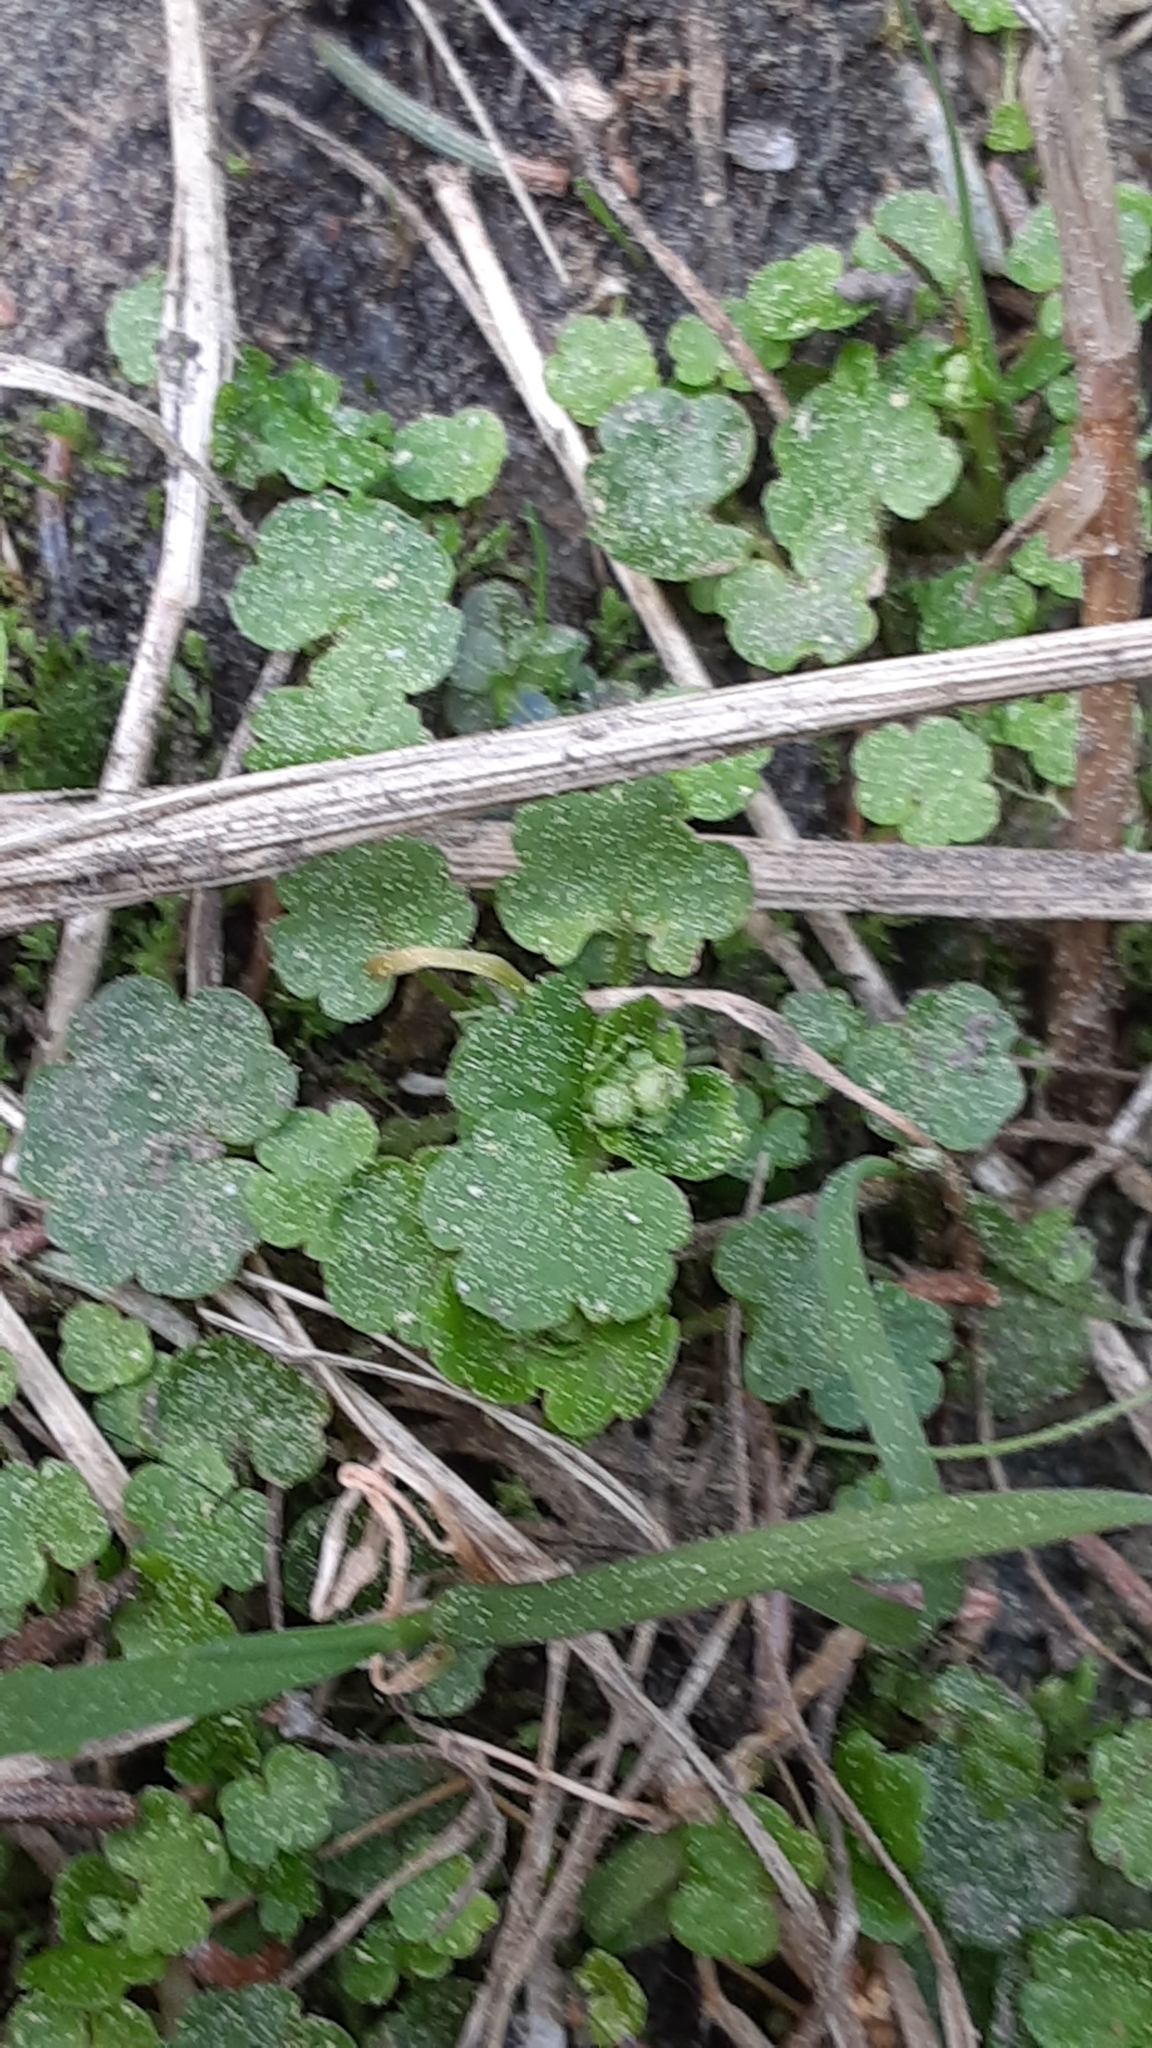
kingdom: Plantae
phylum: Tracheophyta
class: Magnoliopsida
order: Saxifragales
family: Saxifragaceae
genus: Chrysosplenium
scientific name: Chrysosplenium tetrandrum
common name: Green saxifrage
